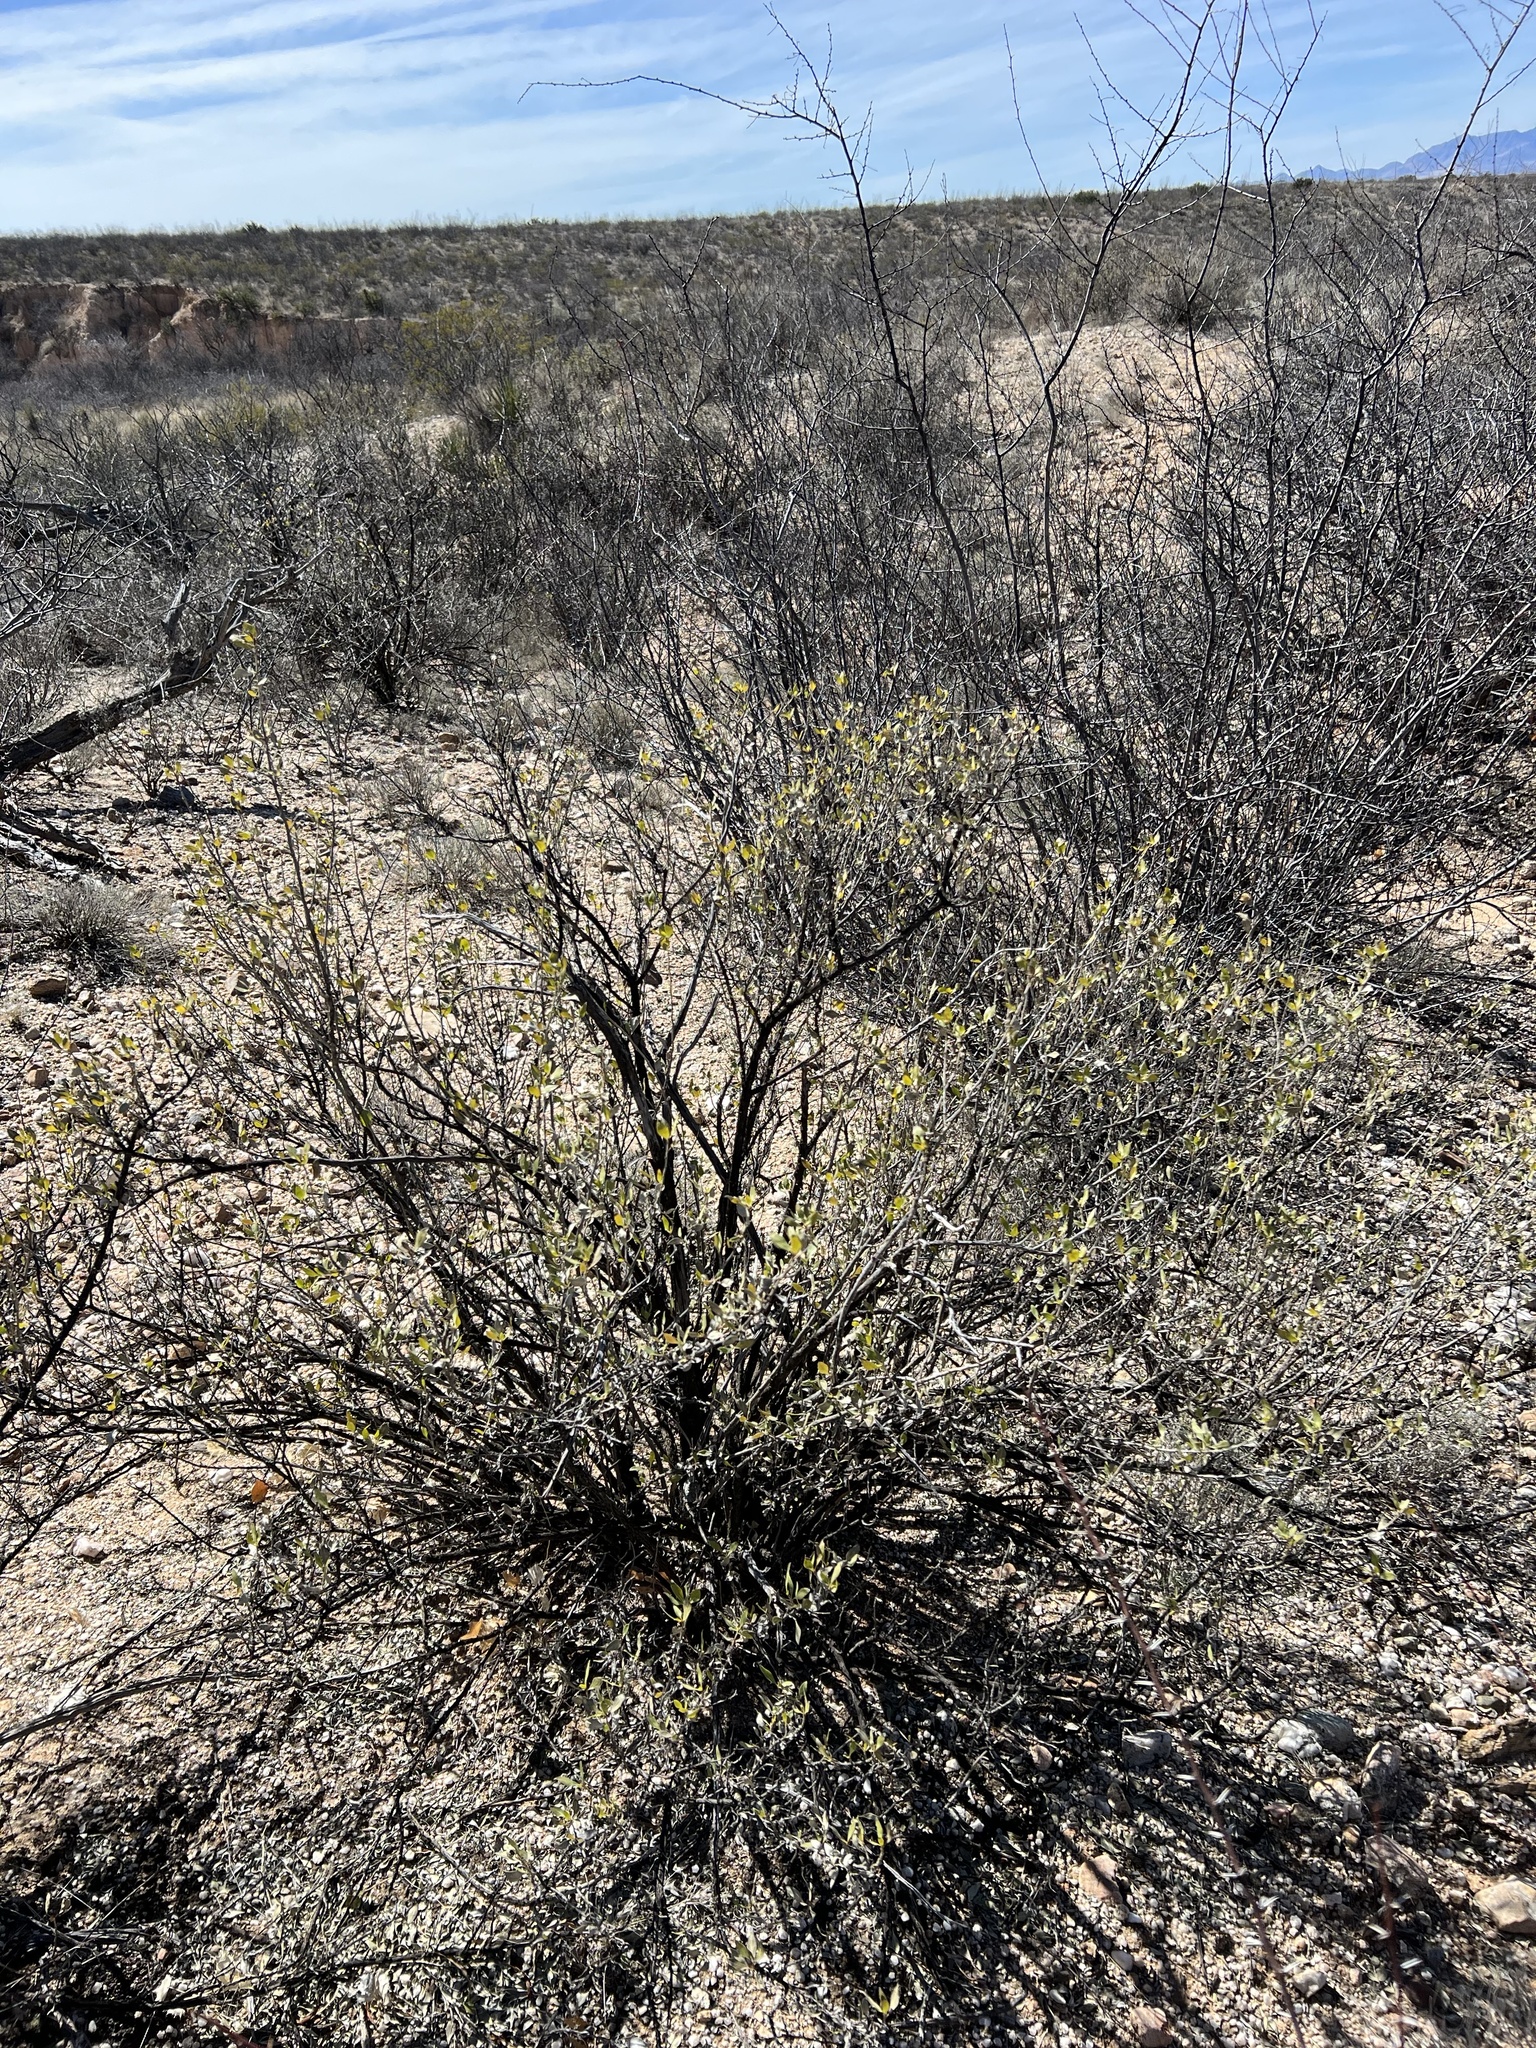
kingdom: Plantae
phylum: Tracheophyta
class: Magnoliopsida
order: Asterales
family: Asteraceae
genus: Flourensia
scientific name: Flourensia cernua
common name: Varnishbush
